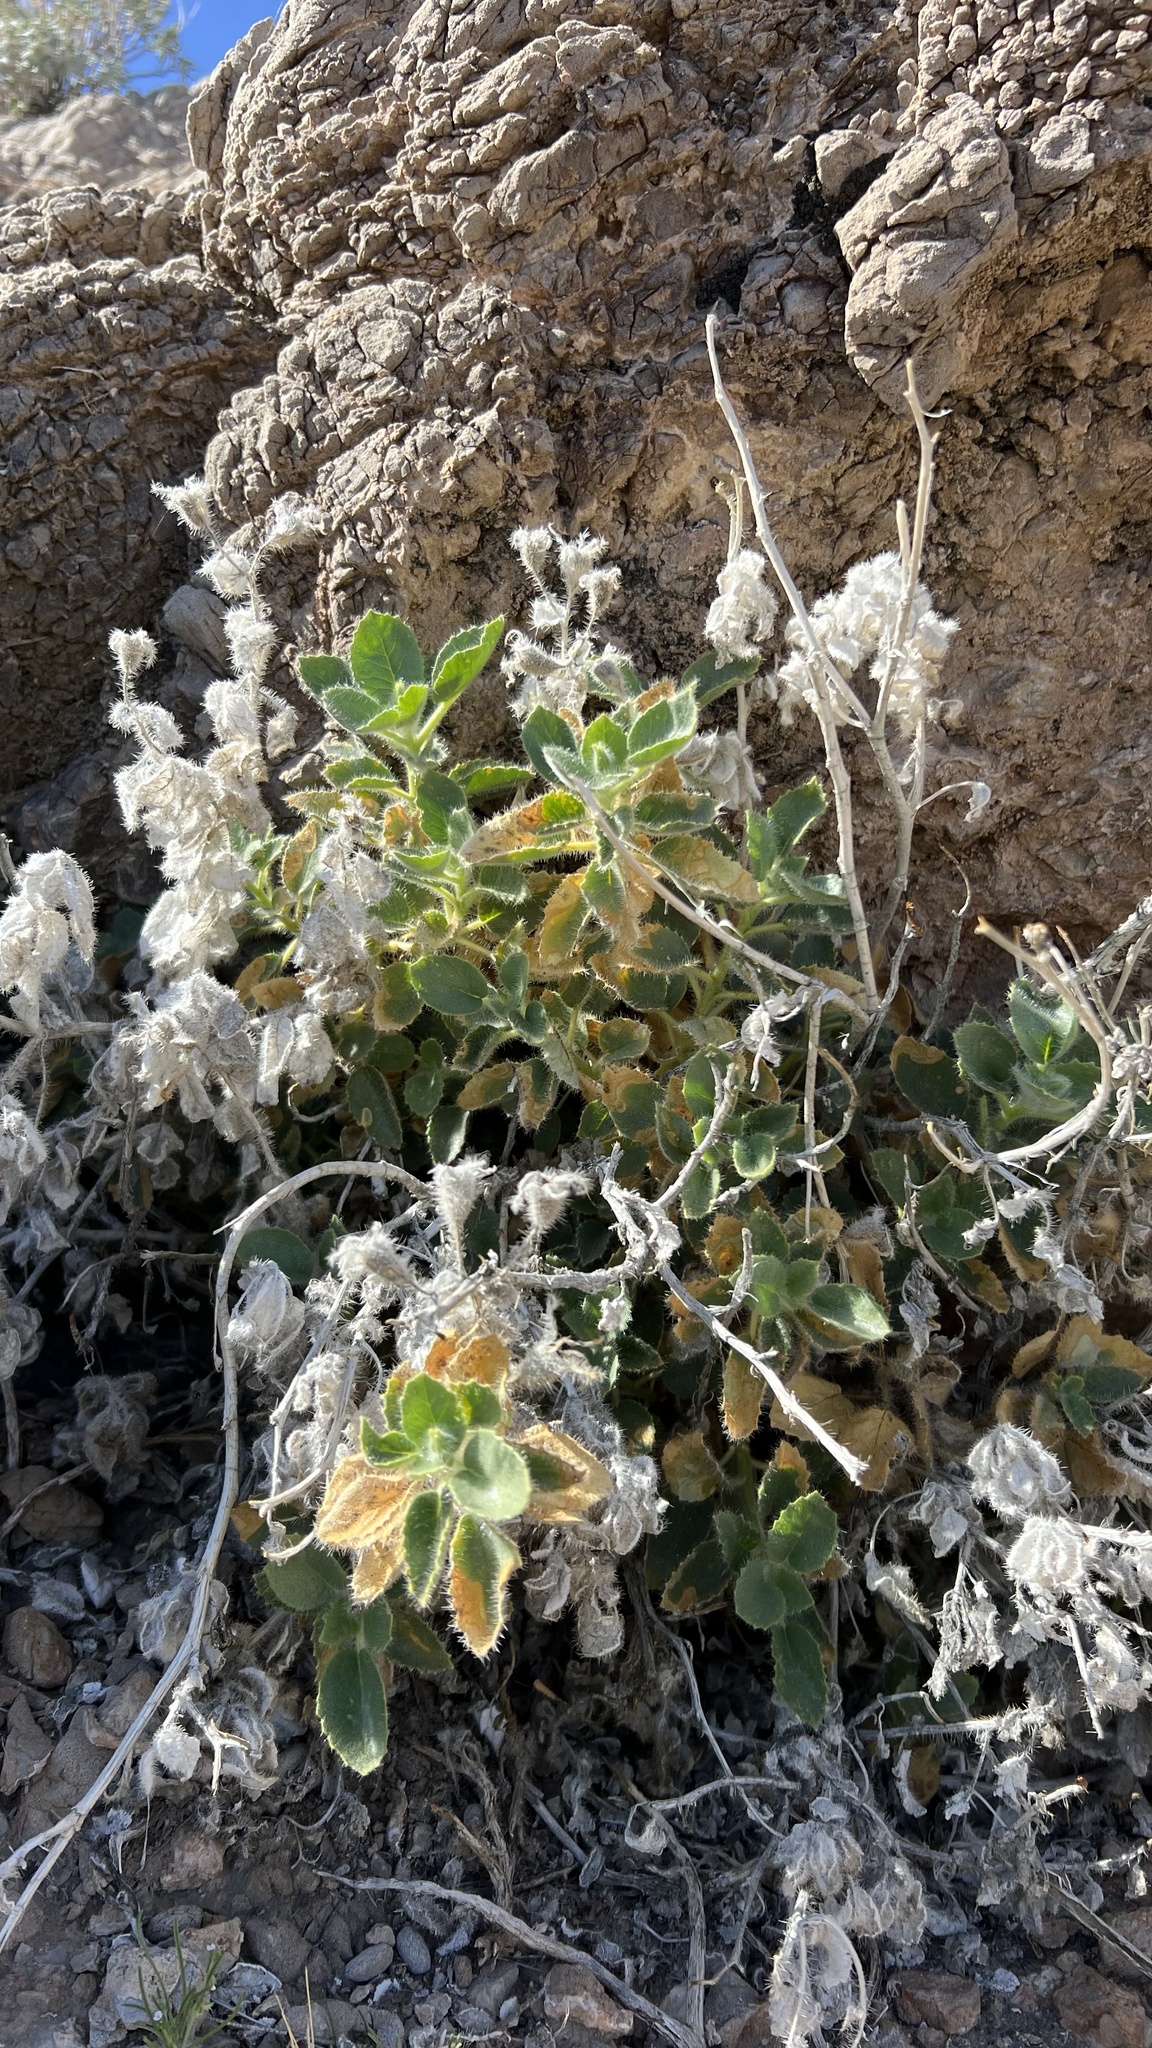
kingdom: Plantae
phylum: Tracheophyta
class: Magnoliopsida
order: Cornales
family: Loasaceae
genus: Eucnide
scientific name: Eucnide urens
